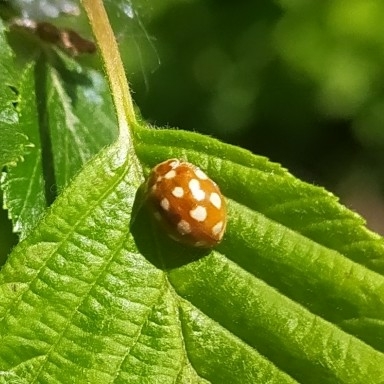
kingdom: Animalia
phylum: Arthropoda
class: Insecta
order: Coleoptera
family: Coccinellidae
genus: Calvia
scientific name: Calvia quatuordecimguttata
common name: Cream-spot ladybird
